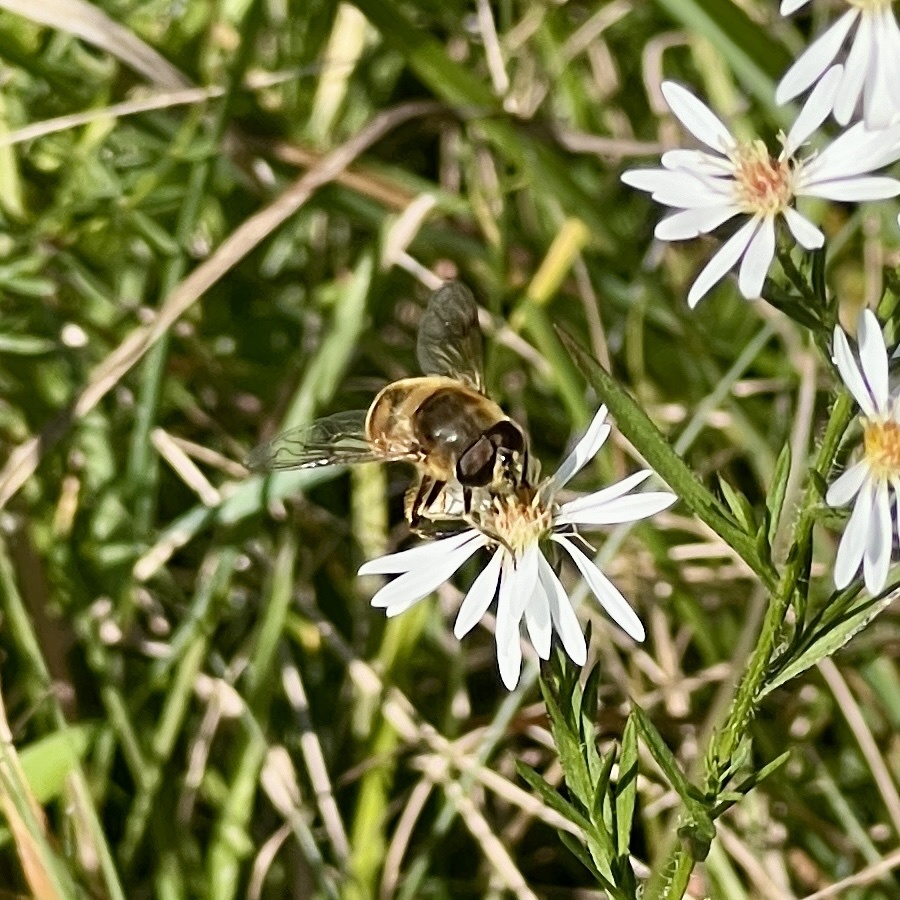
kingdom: Animalia
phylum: Arthropoda
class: Insecta
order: Diptera
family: Syrphidae
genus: Eristalis
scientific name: Eristalis tenax
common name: Drone fly
